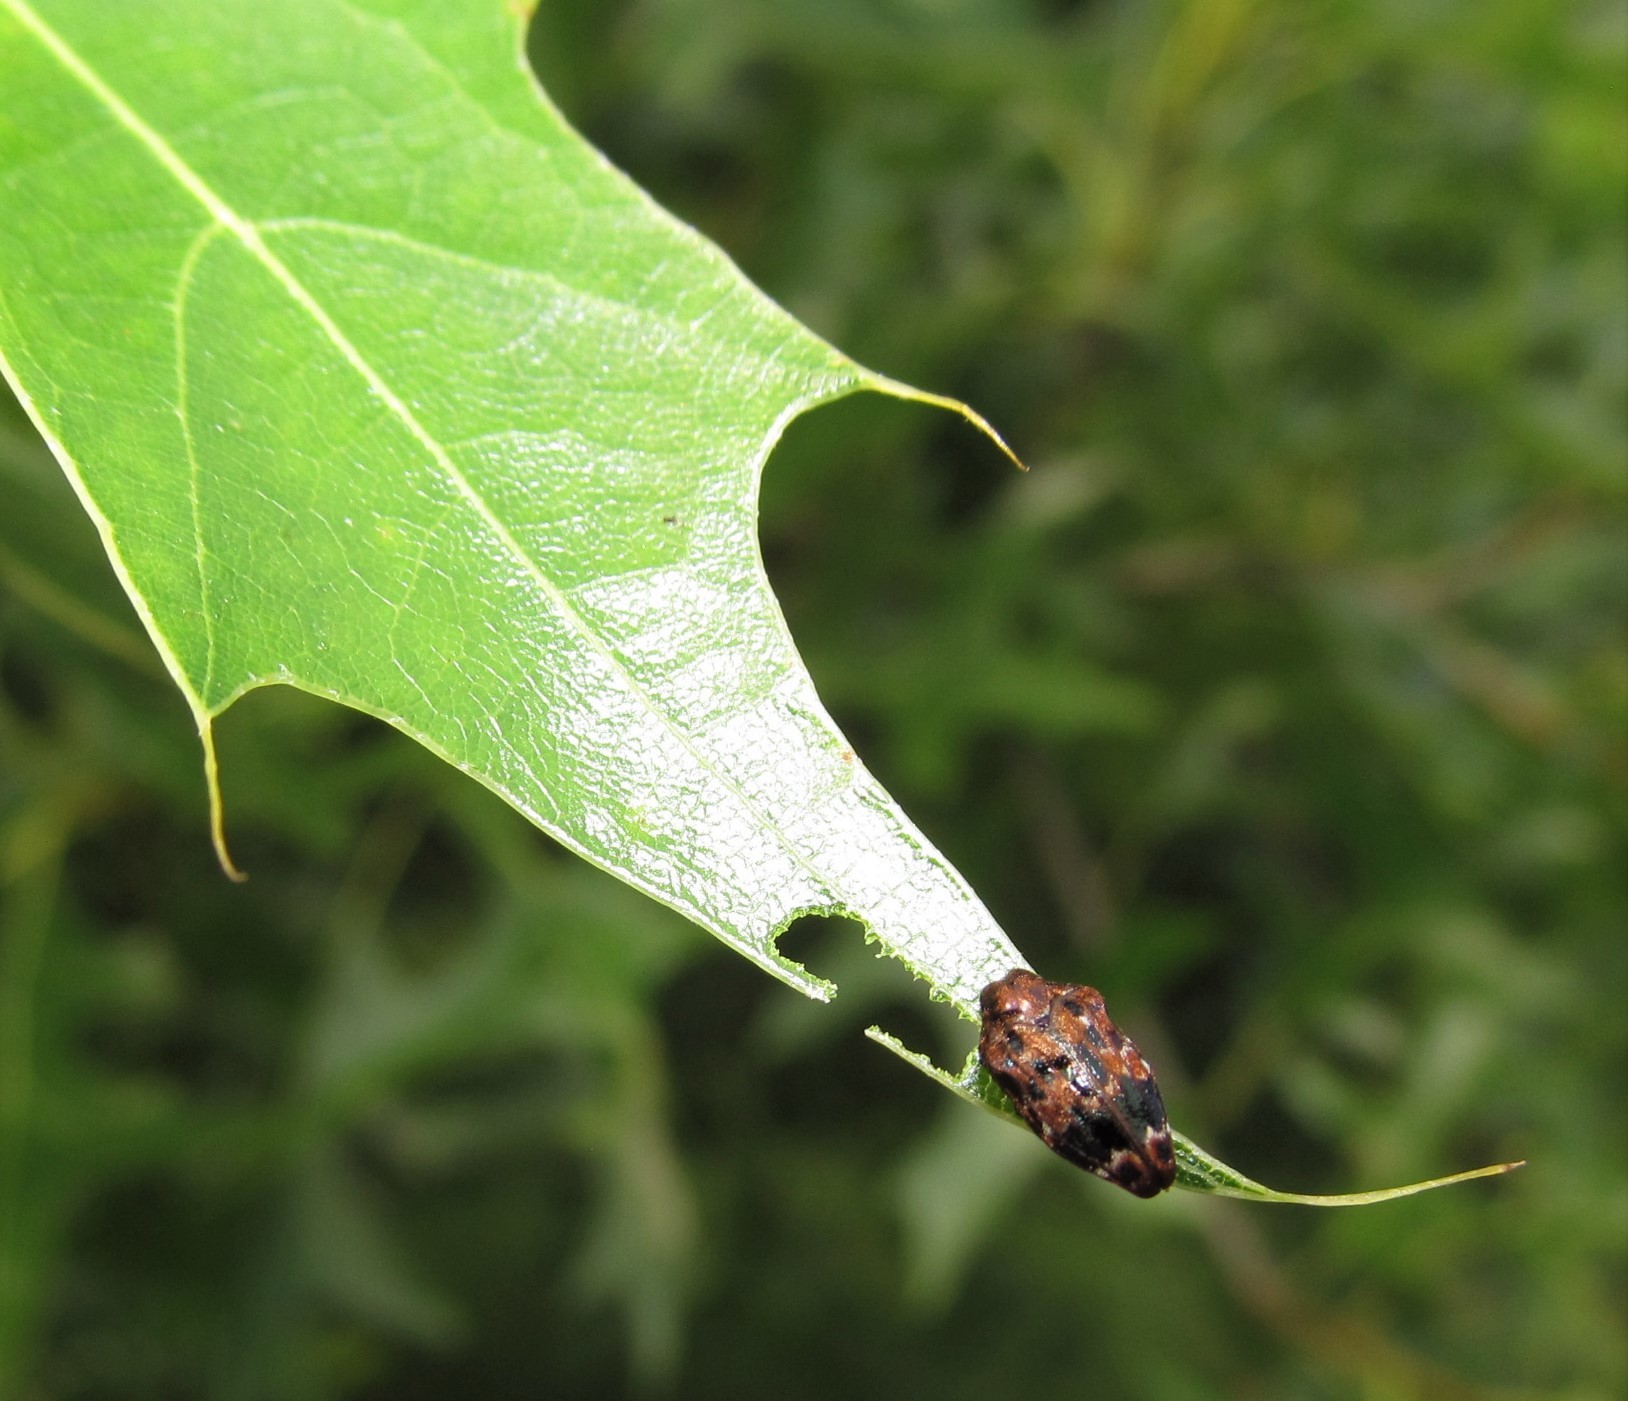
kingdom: Animalia
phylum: Arthropoda
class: Insecta
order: Coleoptera
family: Buprestidae
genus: Brachys
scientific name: Brachys ovatus
